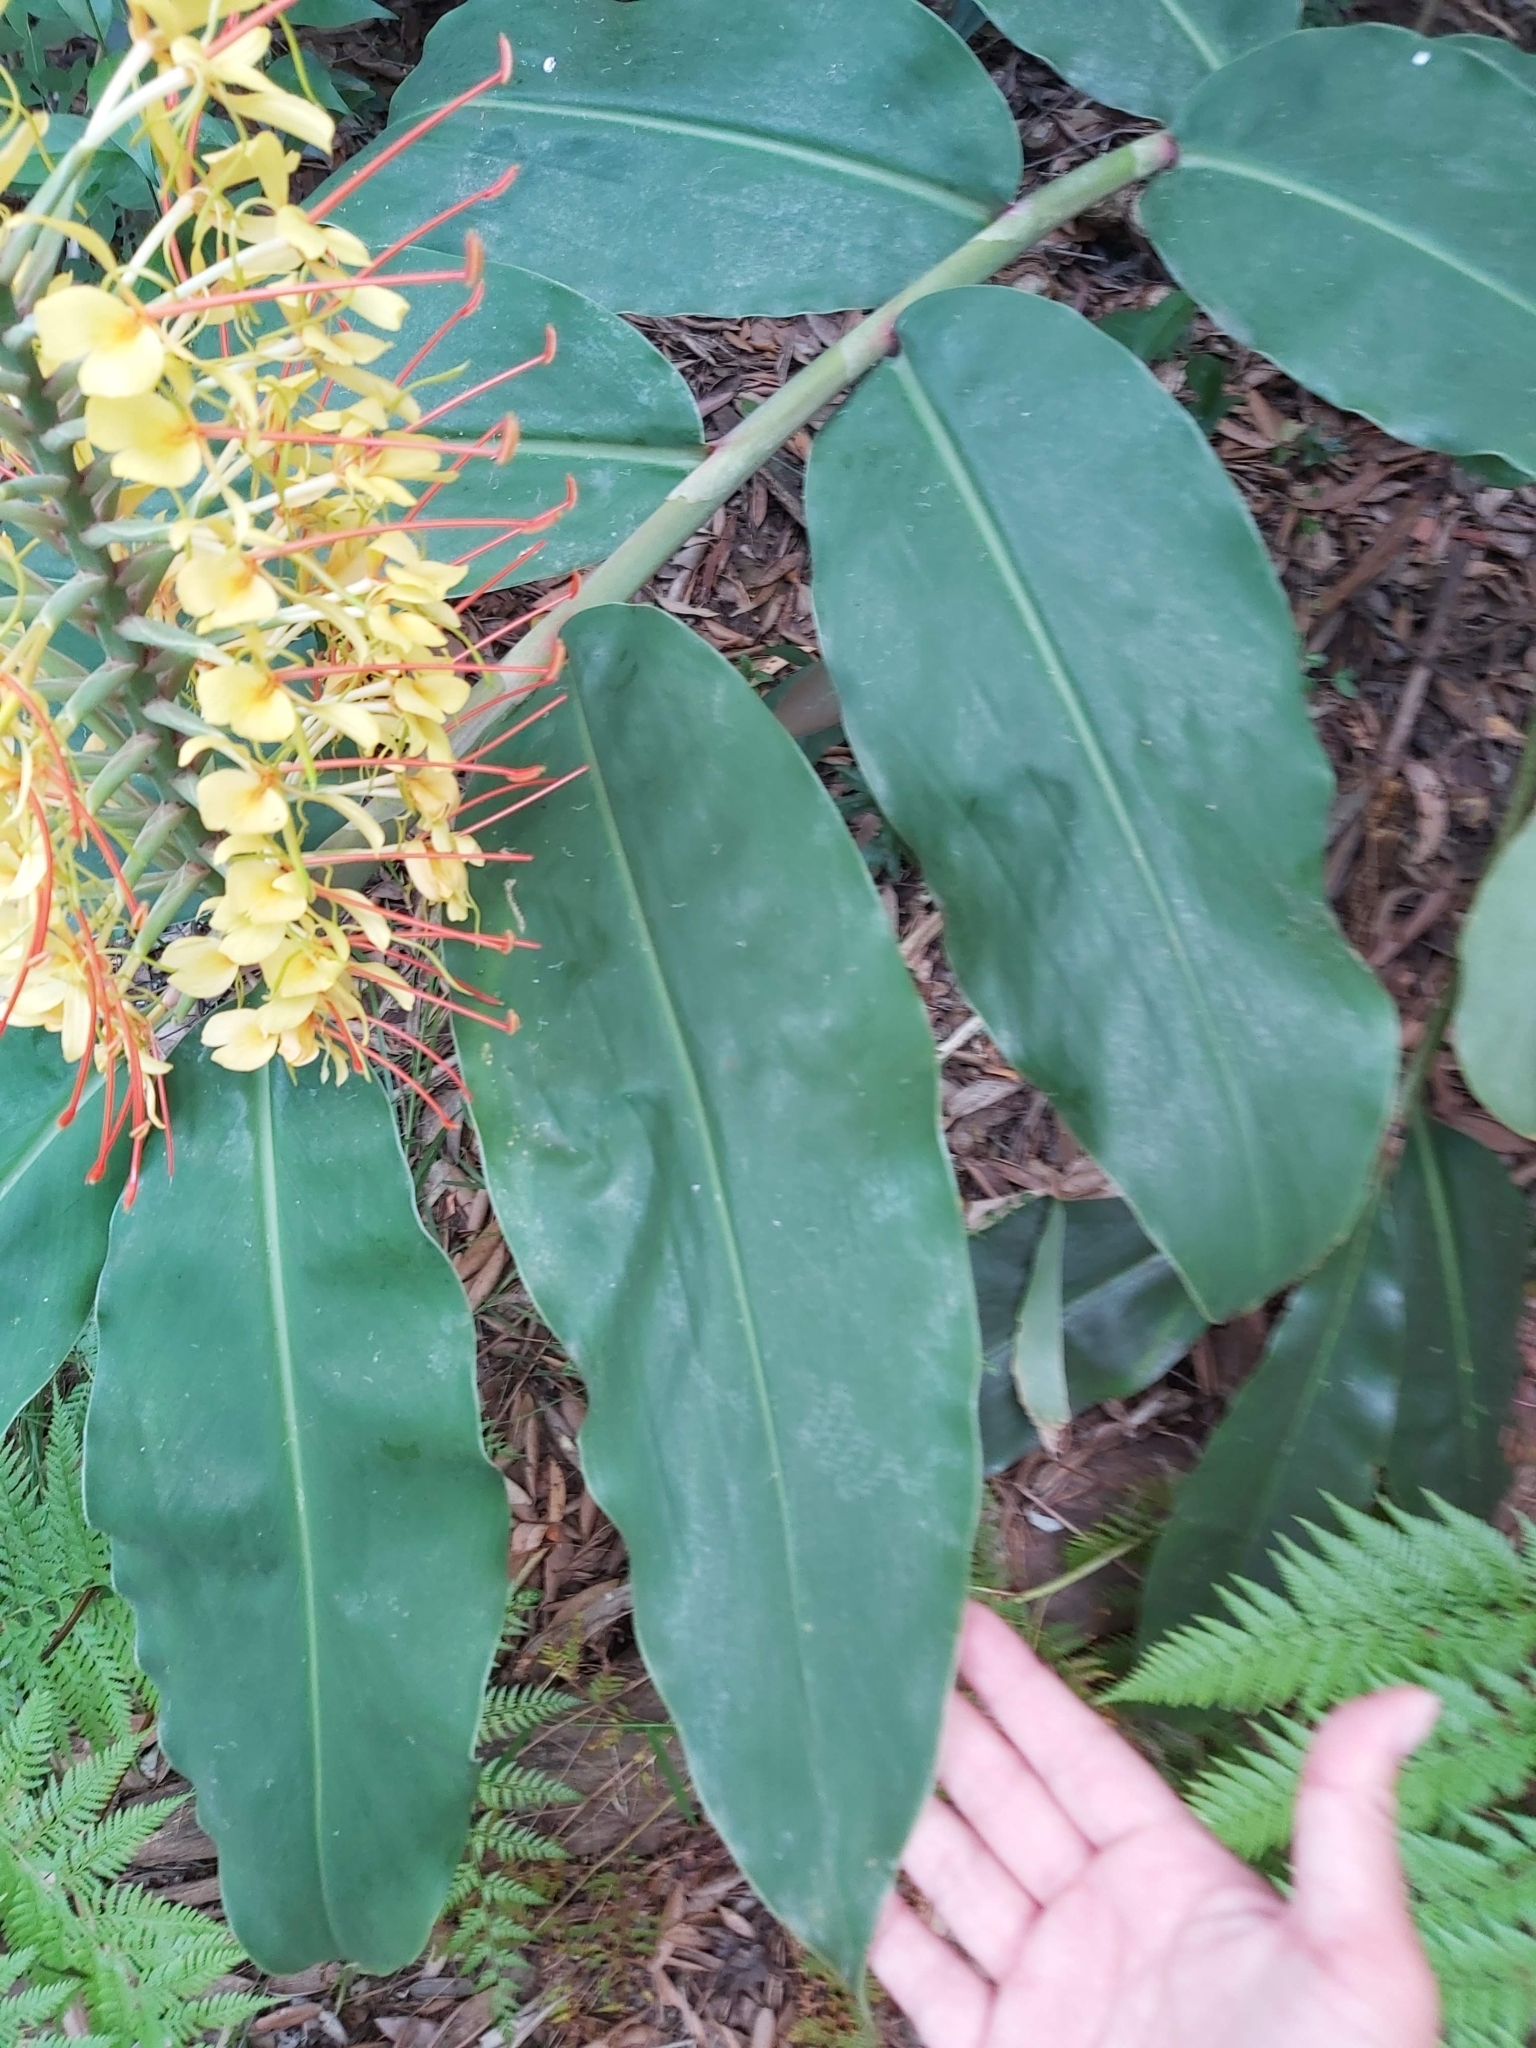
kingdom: Plantae
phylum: Tracheophyta
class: Liliopsida
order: Zingiberales
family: Zingiberaceae
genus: Hedychium
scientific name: Hedychium gardnerianum
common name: Himalayan ginger
